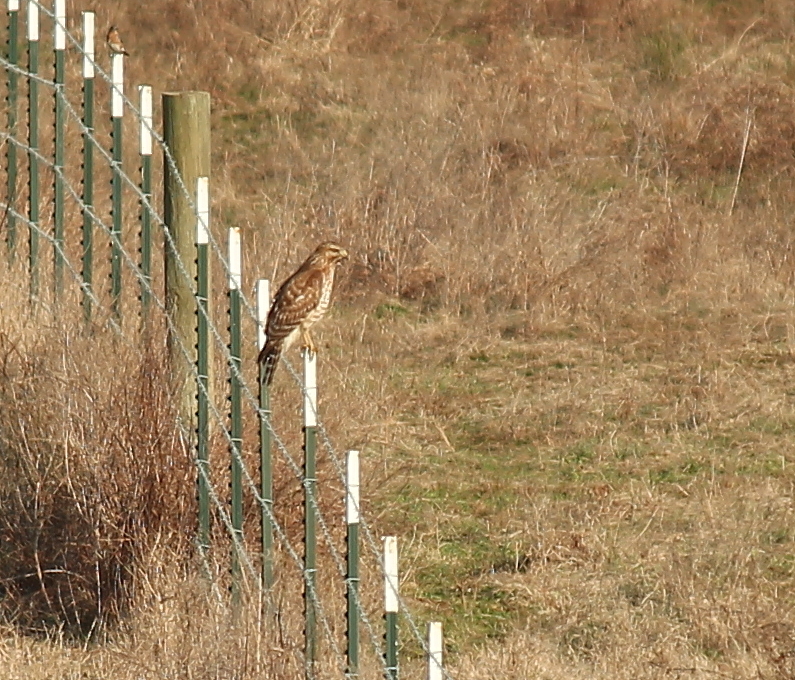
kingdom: Animalia
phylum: Chordata
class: Aves
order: Accipitriformes
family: Accipitridae
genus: Buteo
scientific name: Buteo lineatus
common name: Red-shouldered hawk
